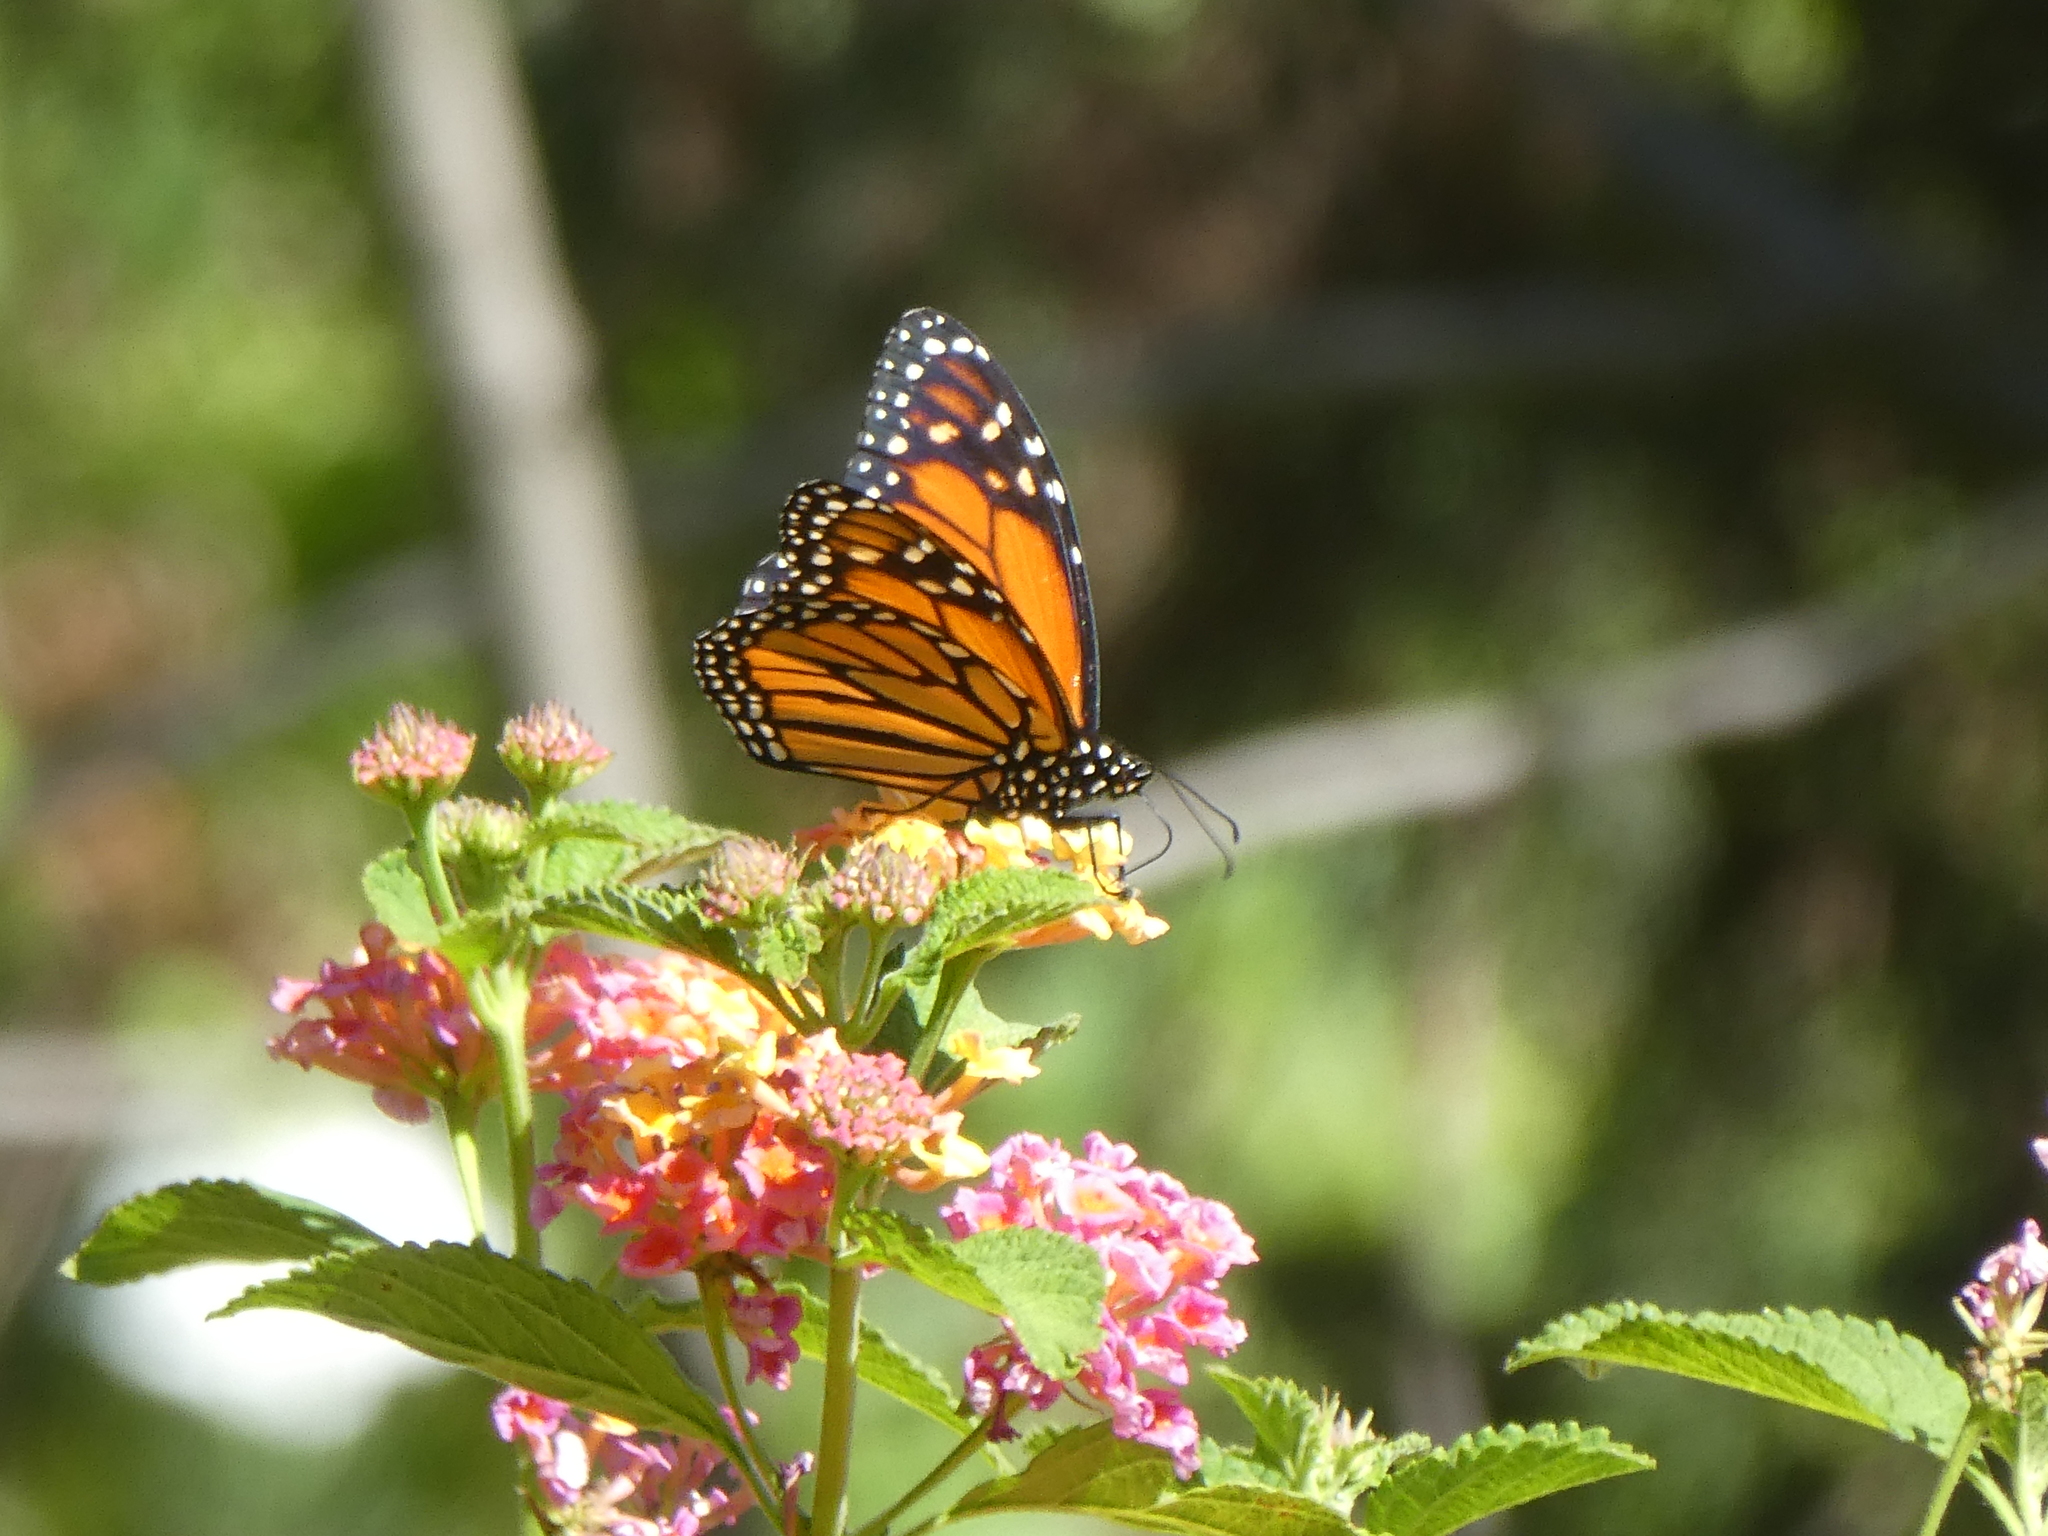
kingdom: Animalia
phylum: Arthropoda
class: Insecta
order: Lepidoptera
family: Nymphalidae
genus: Danaus
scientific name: Danaus plexippus
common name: Monarch
